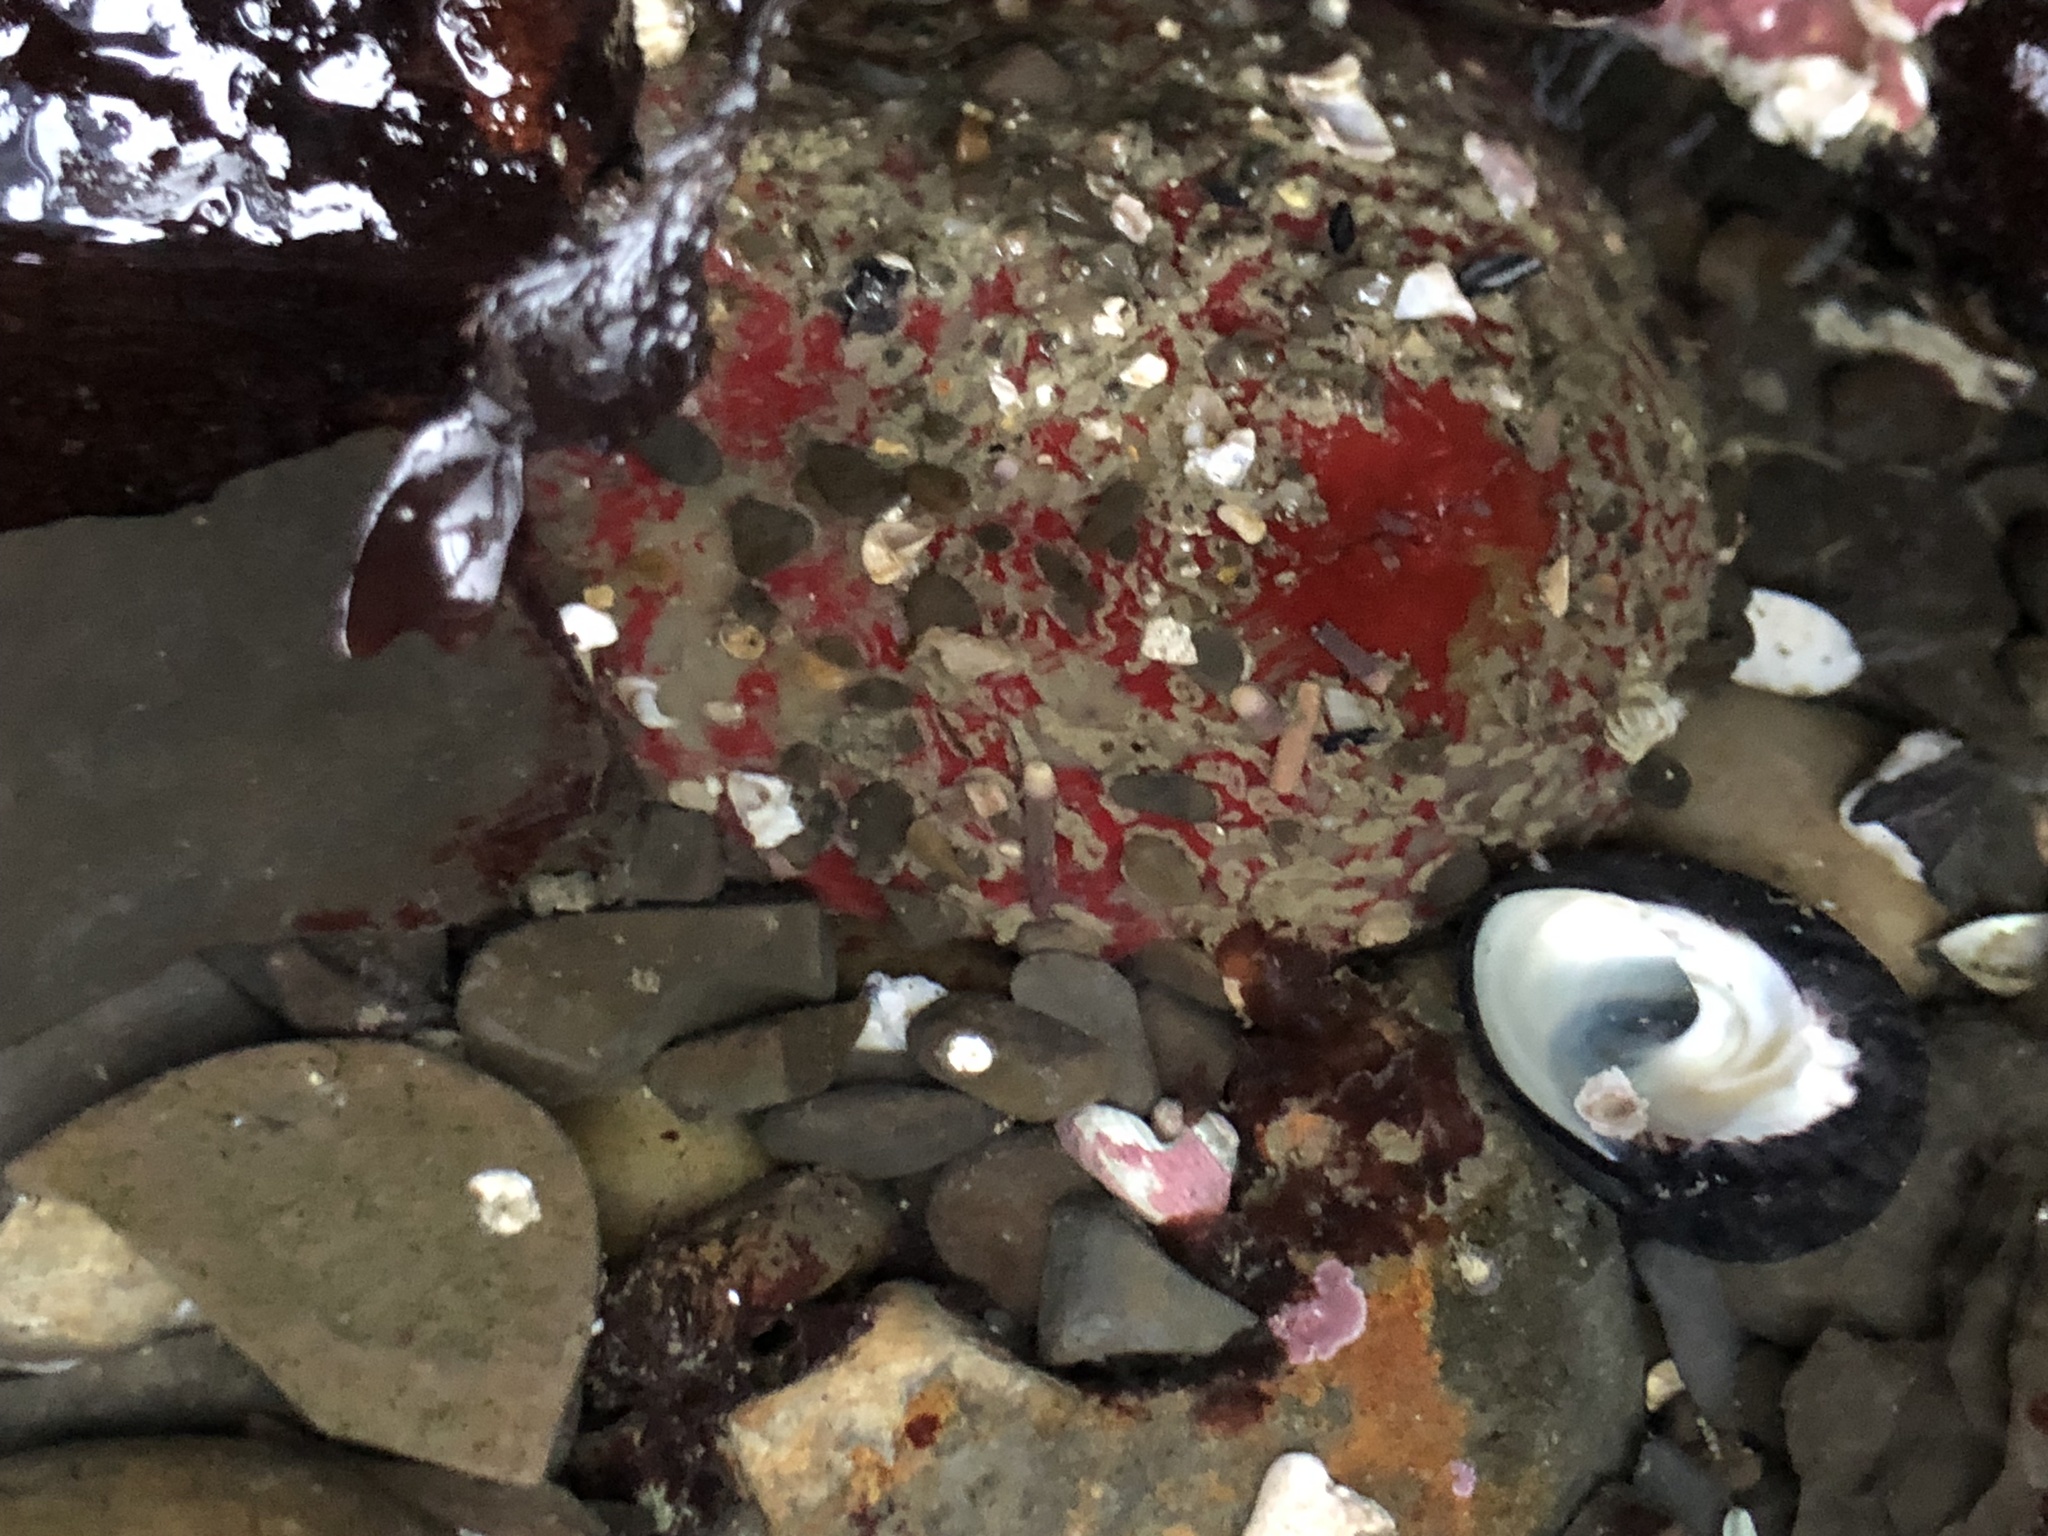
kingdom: Animalia
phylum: Cnidaria
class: Anthozoa
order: Actiniaria
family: Actiniidae
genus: Urticina
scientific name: Urticina grebelnyi
